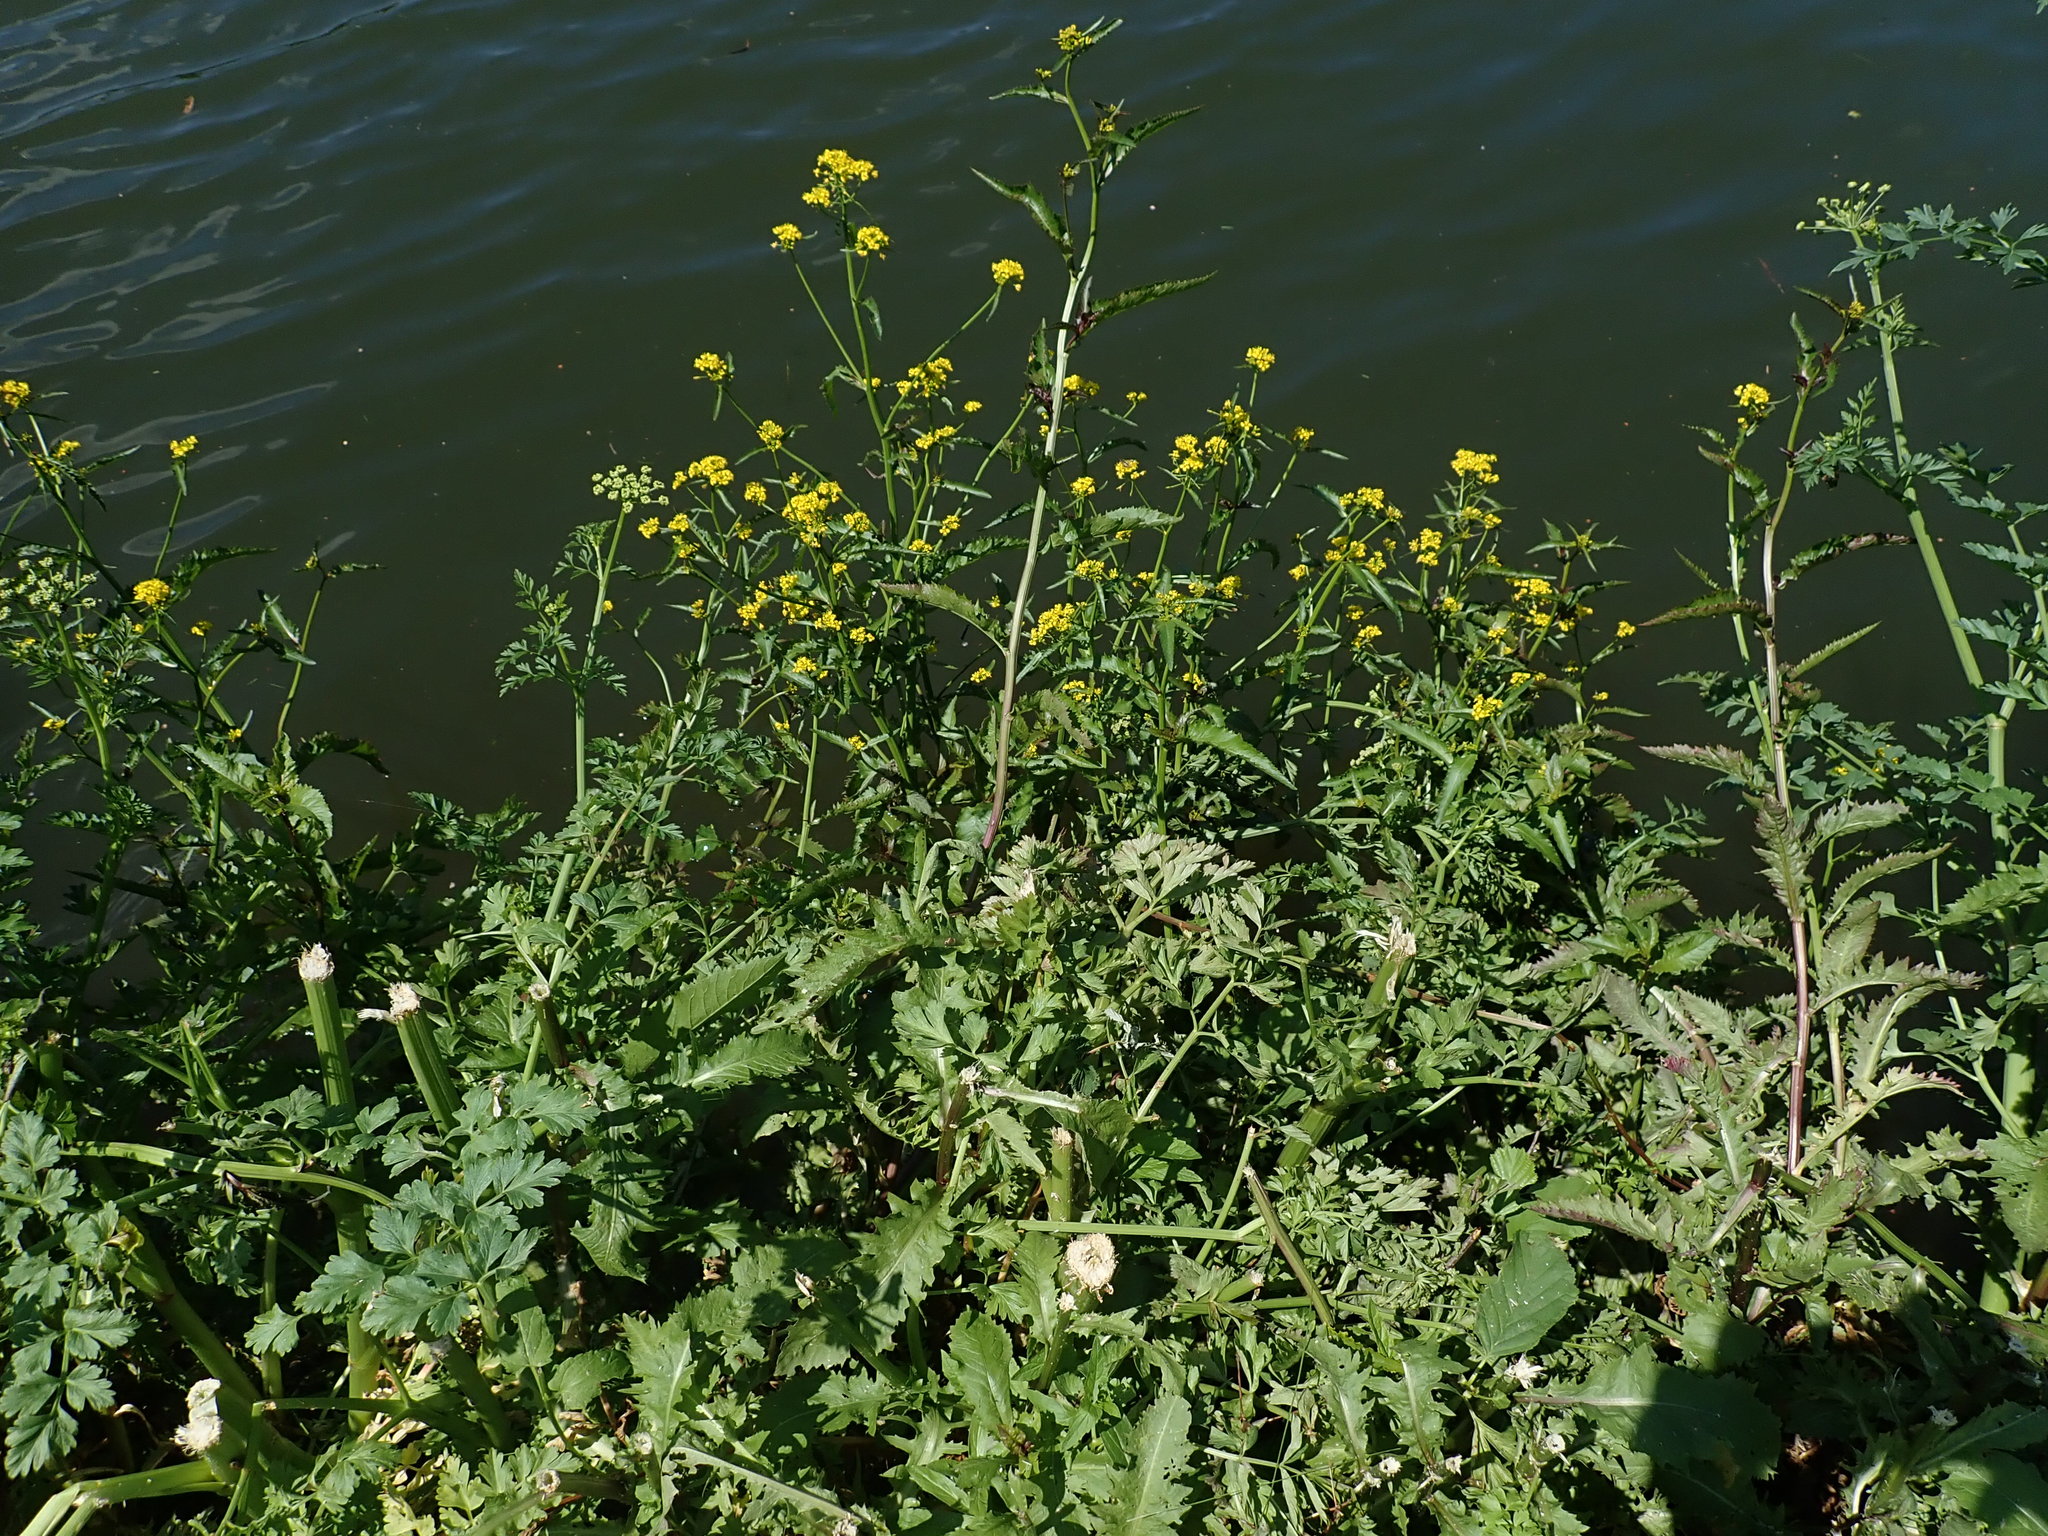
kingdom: Plantae
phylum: Tracheophyta
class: Magnoliopsida
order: Brassicales
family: Brassicaceae
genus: Rorippa
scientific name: Rorippa amphibia
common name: Great yellow-cress
